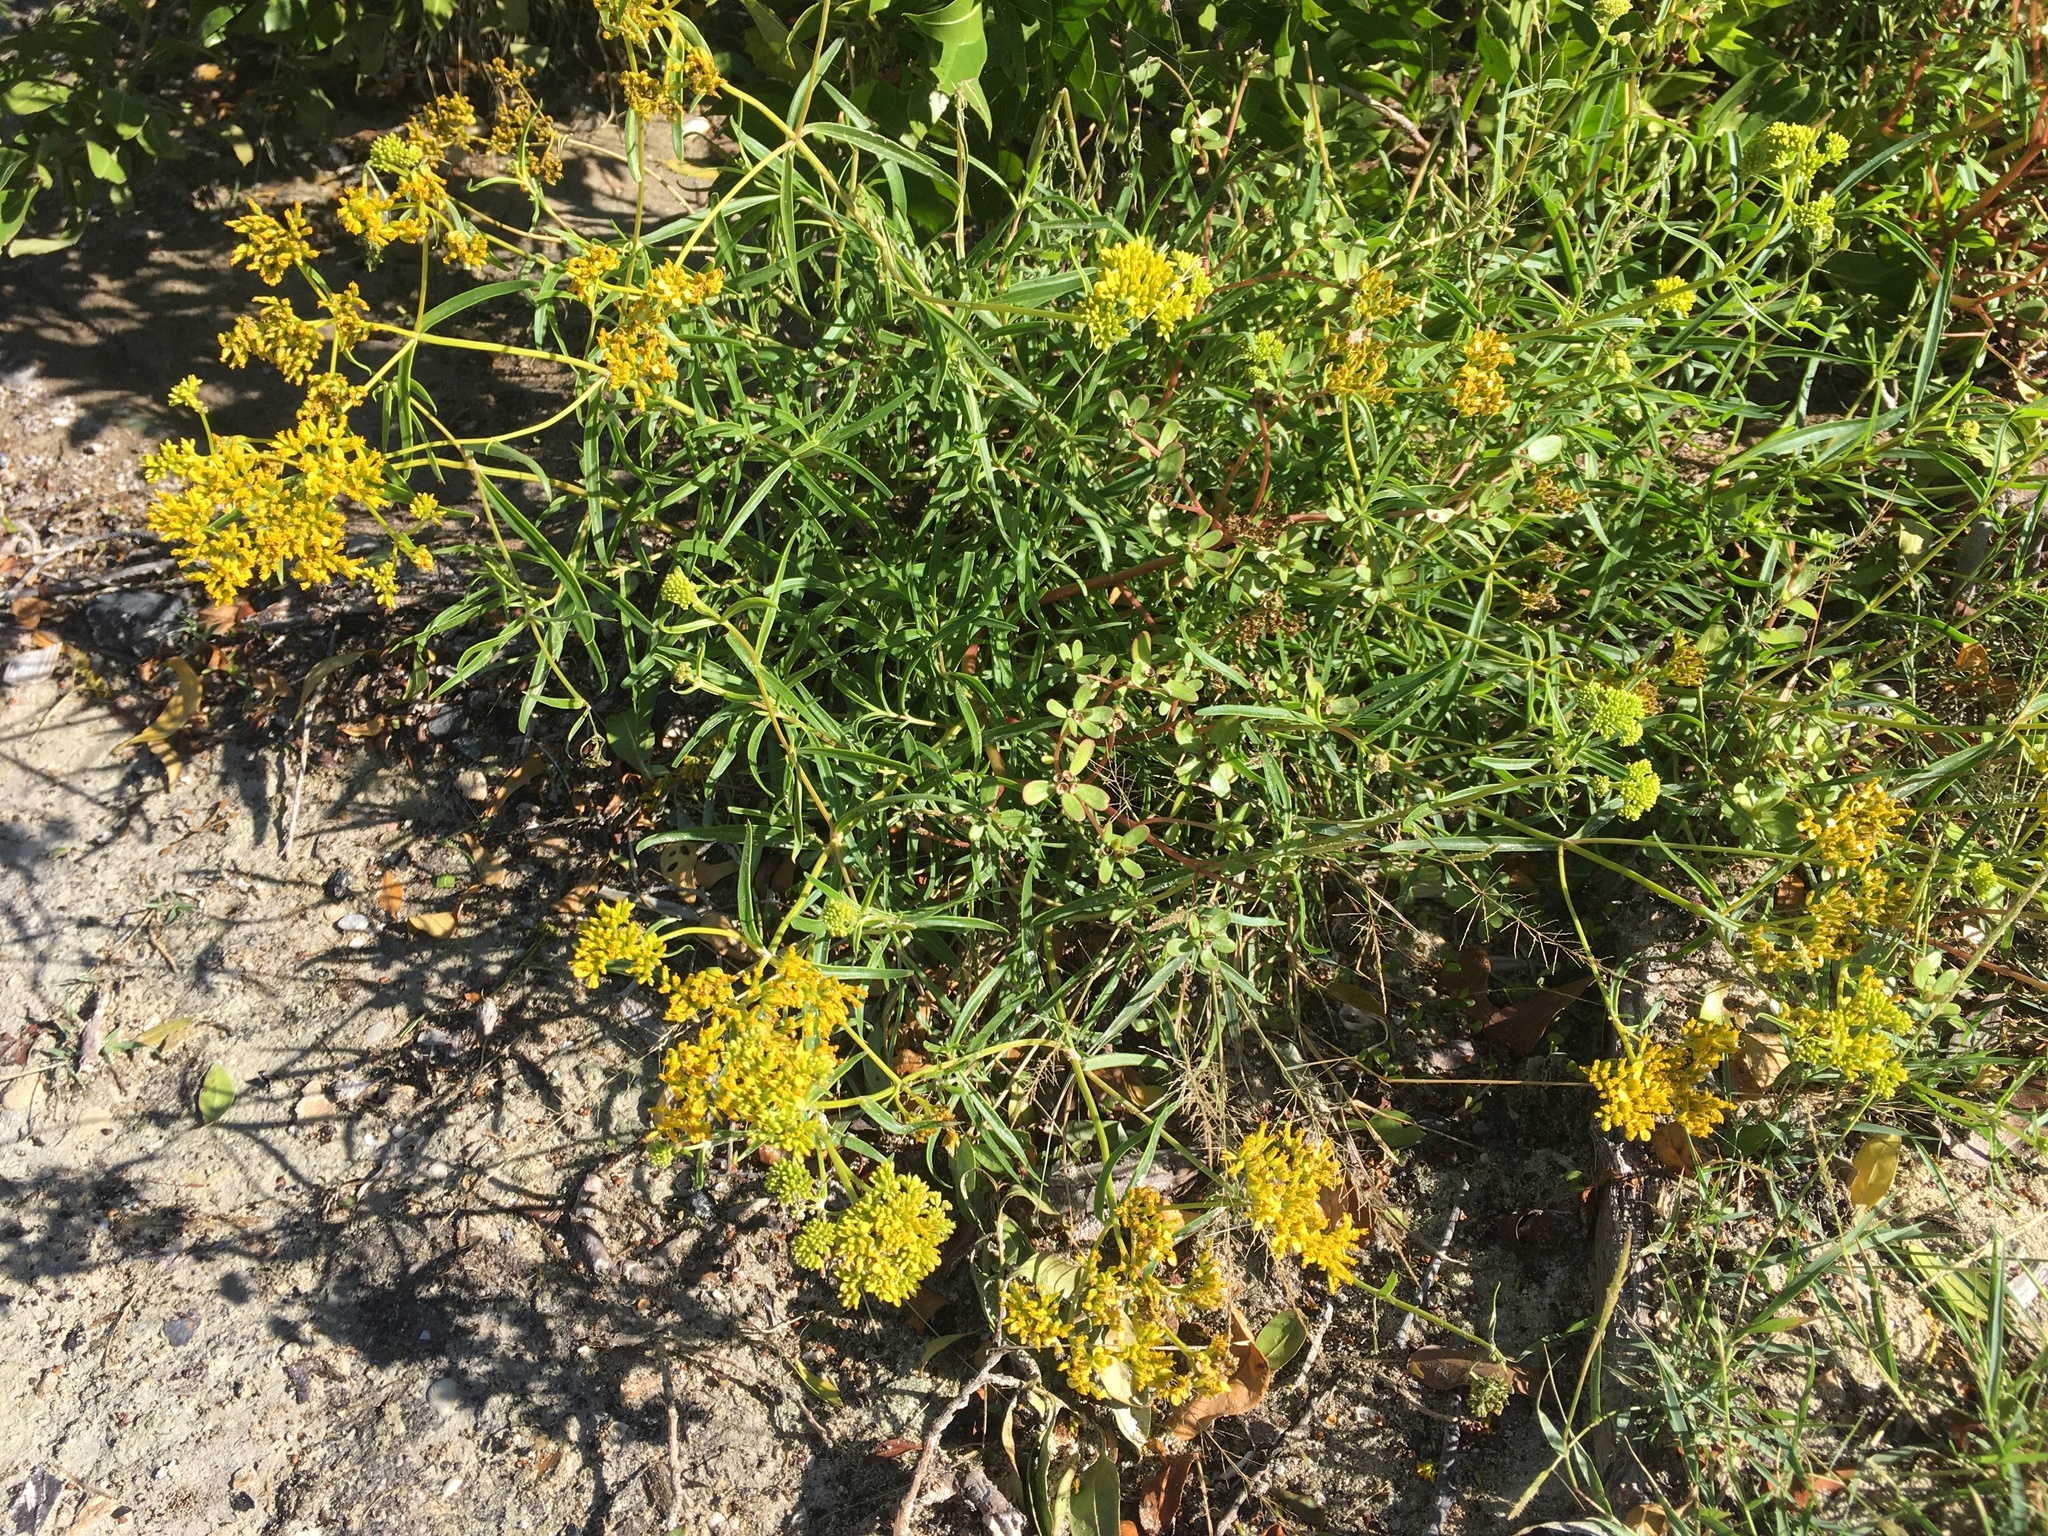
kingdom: Plantae
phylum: Tracheophyta
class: Magnoliopsida
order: Asterales
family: Asteraceae
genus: Flaveria
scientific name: Flaveria linearis
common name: Yellowtop
